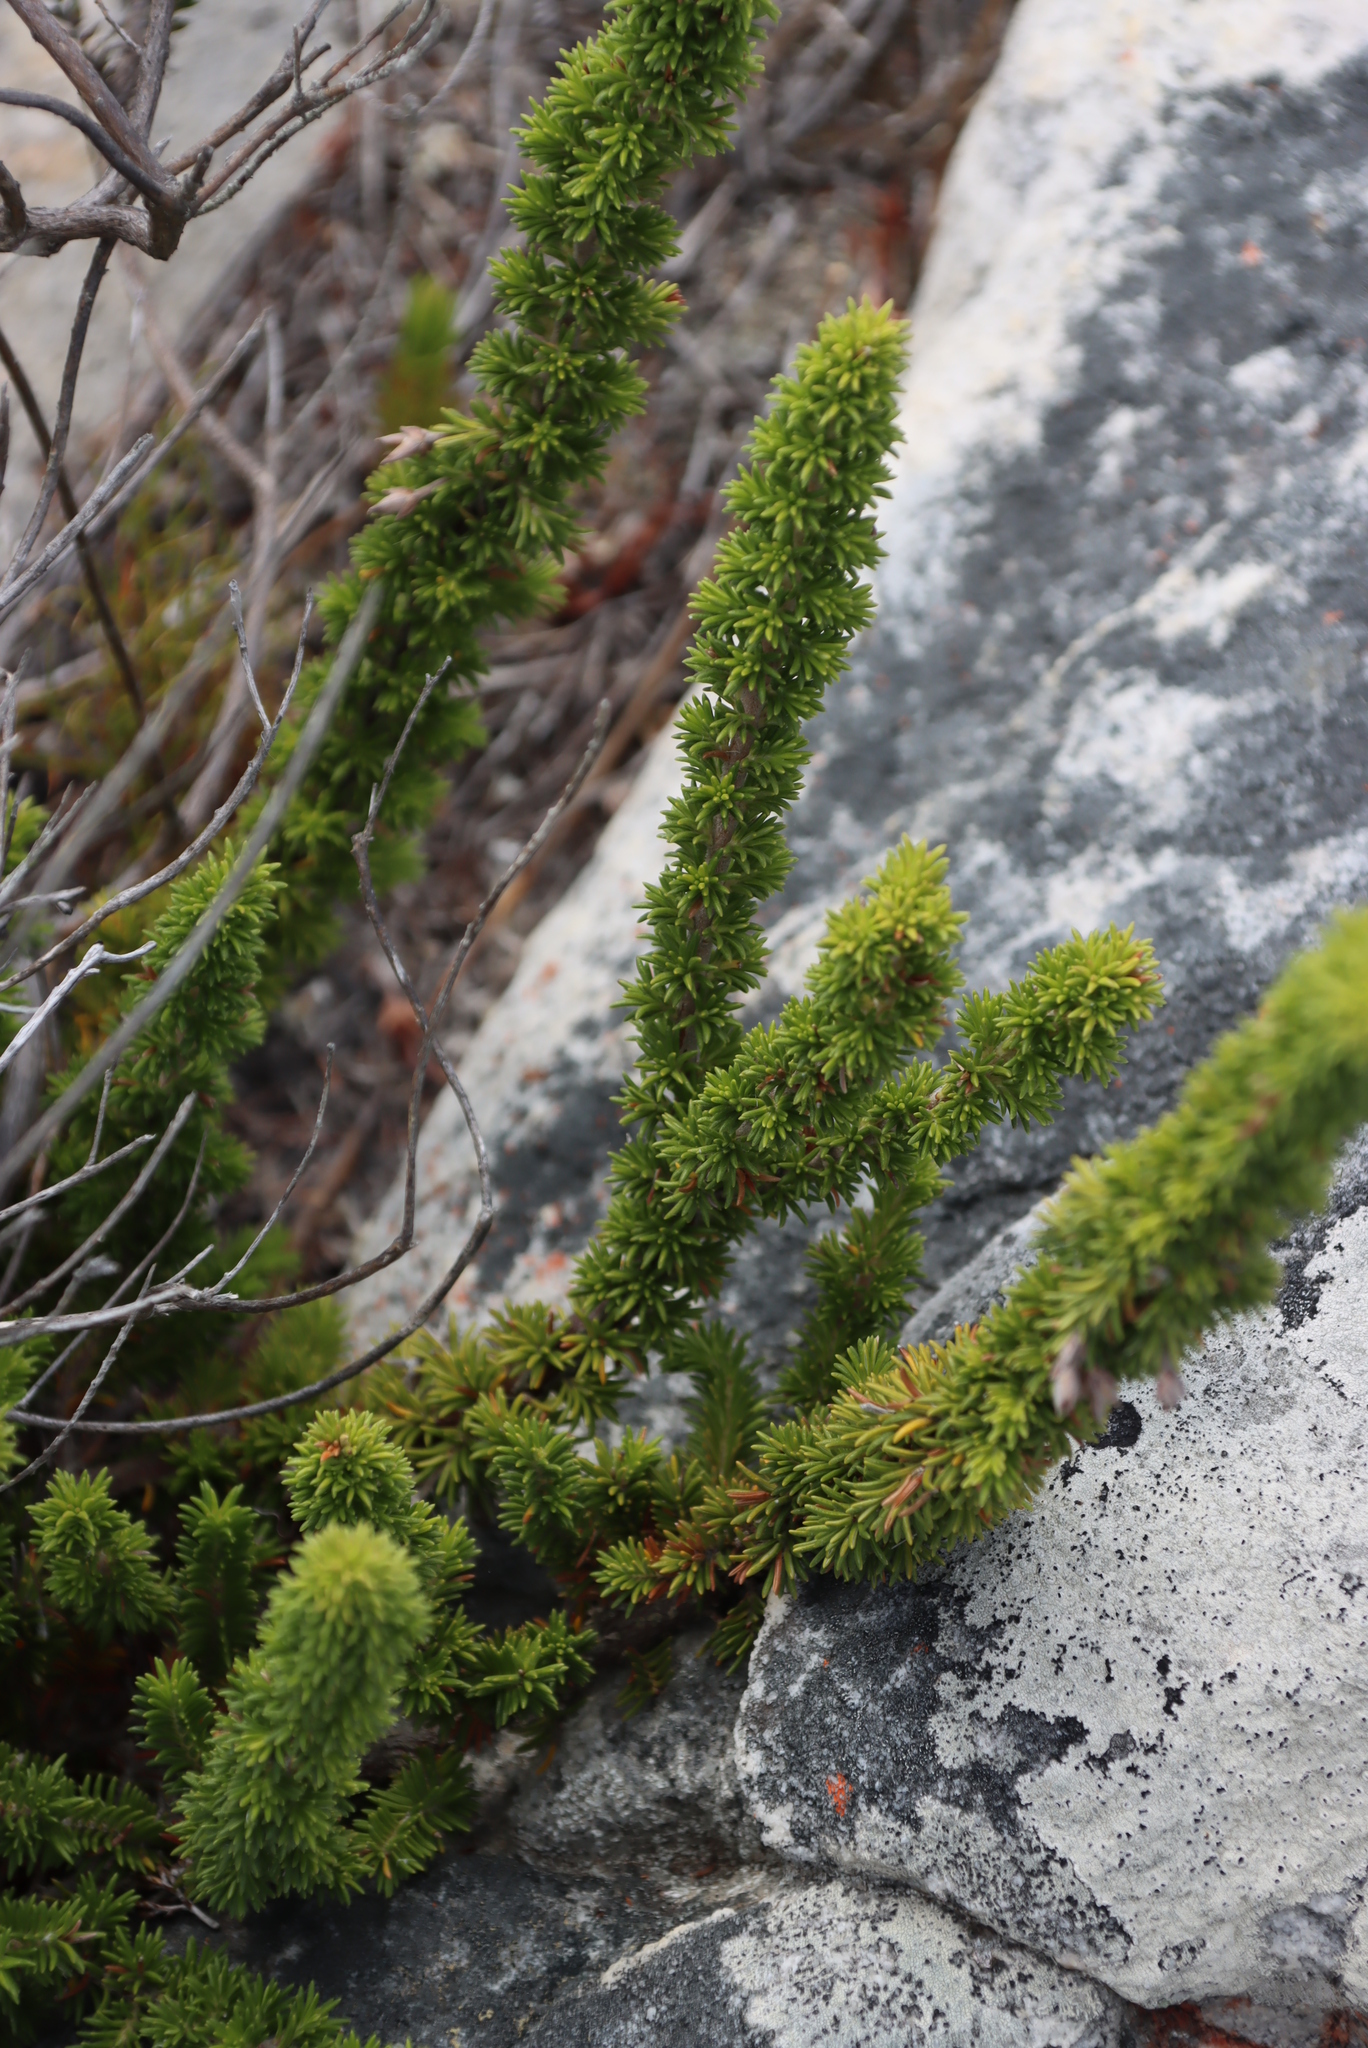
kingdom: Plantae
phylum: Tracheophyta
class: Magnoliopsida
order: Ericales
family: Ericaceae
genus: Erica
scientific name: Erica coccinea
